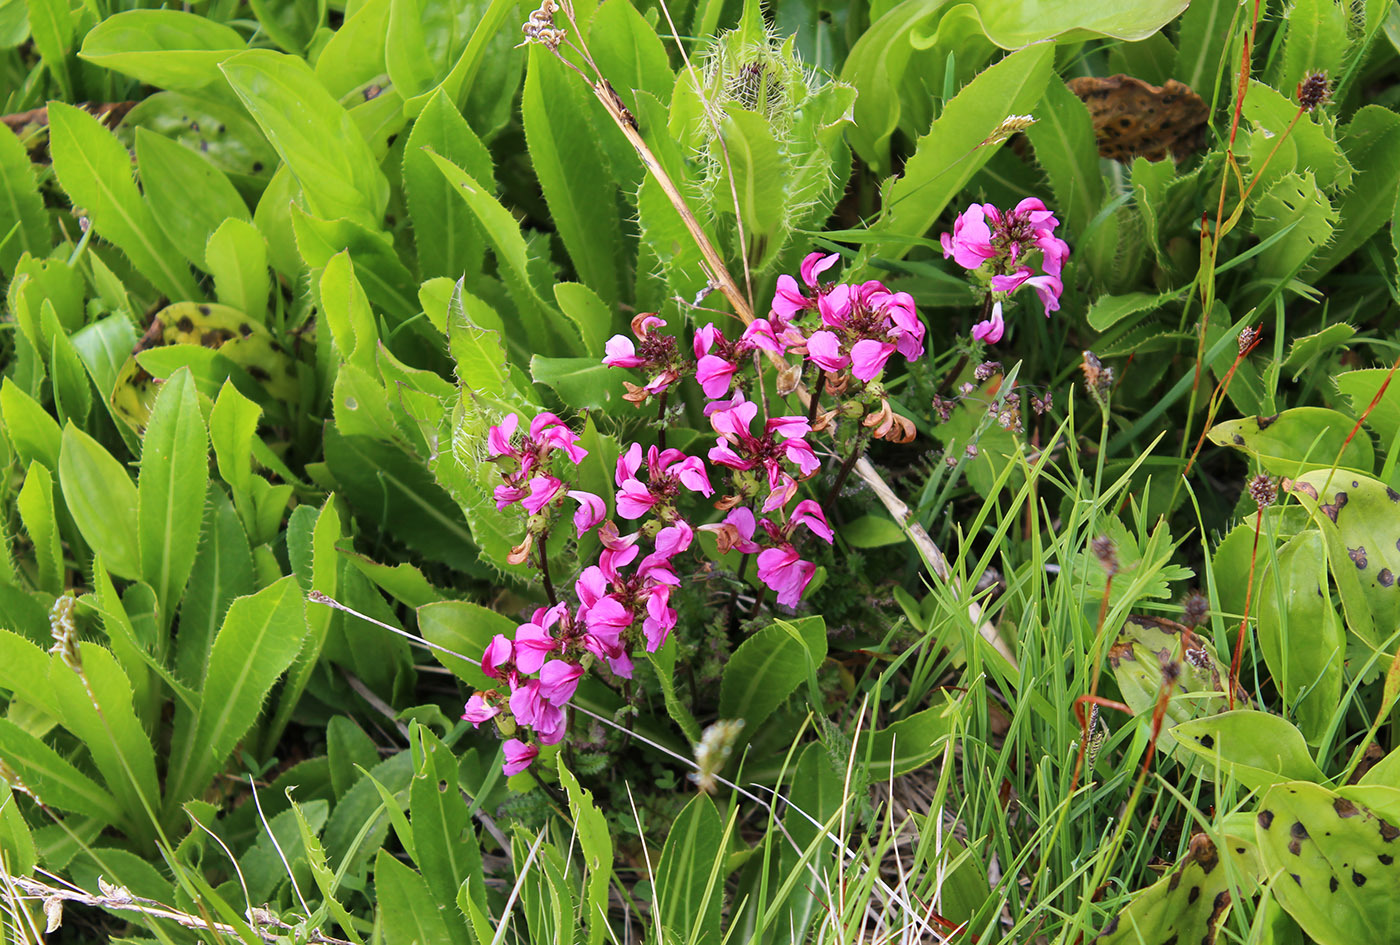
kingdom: Plantae
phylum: Tracheophyta
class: Magnoliopsida
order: Lamiales
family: Orobanchaceae
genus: Pedicularis
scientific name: Pedicularis nordmanniana
